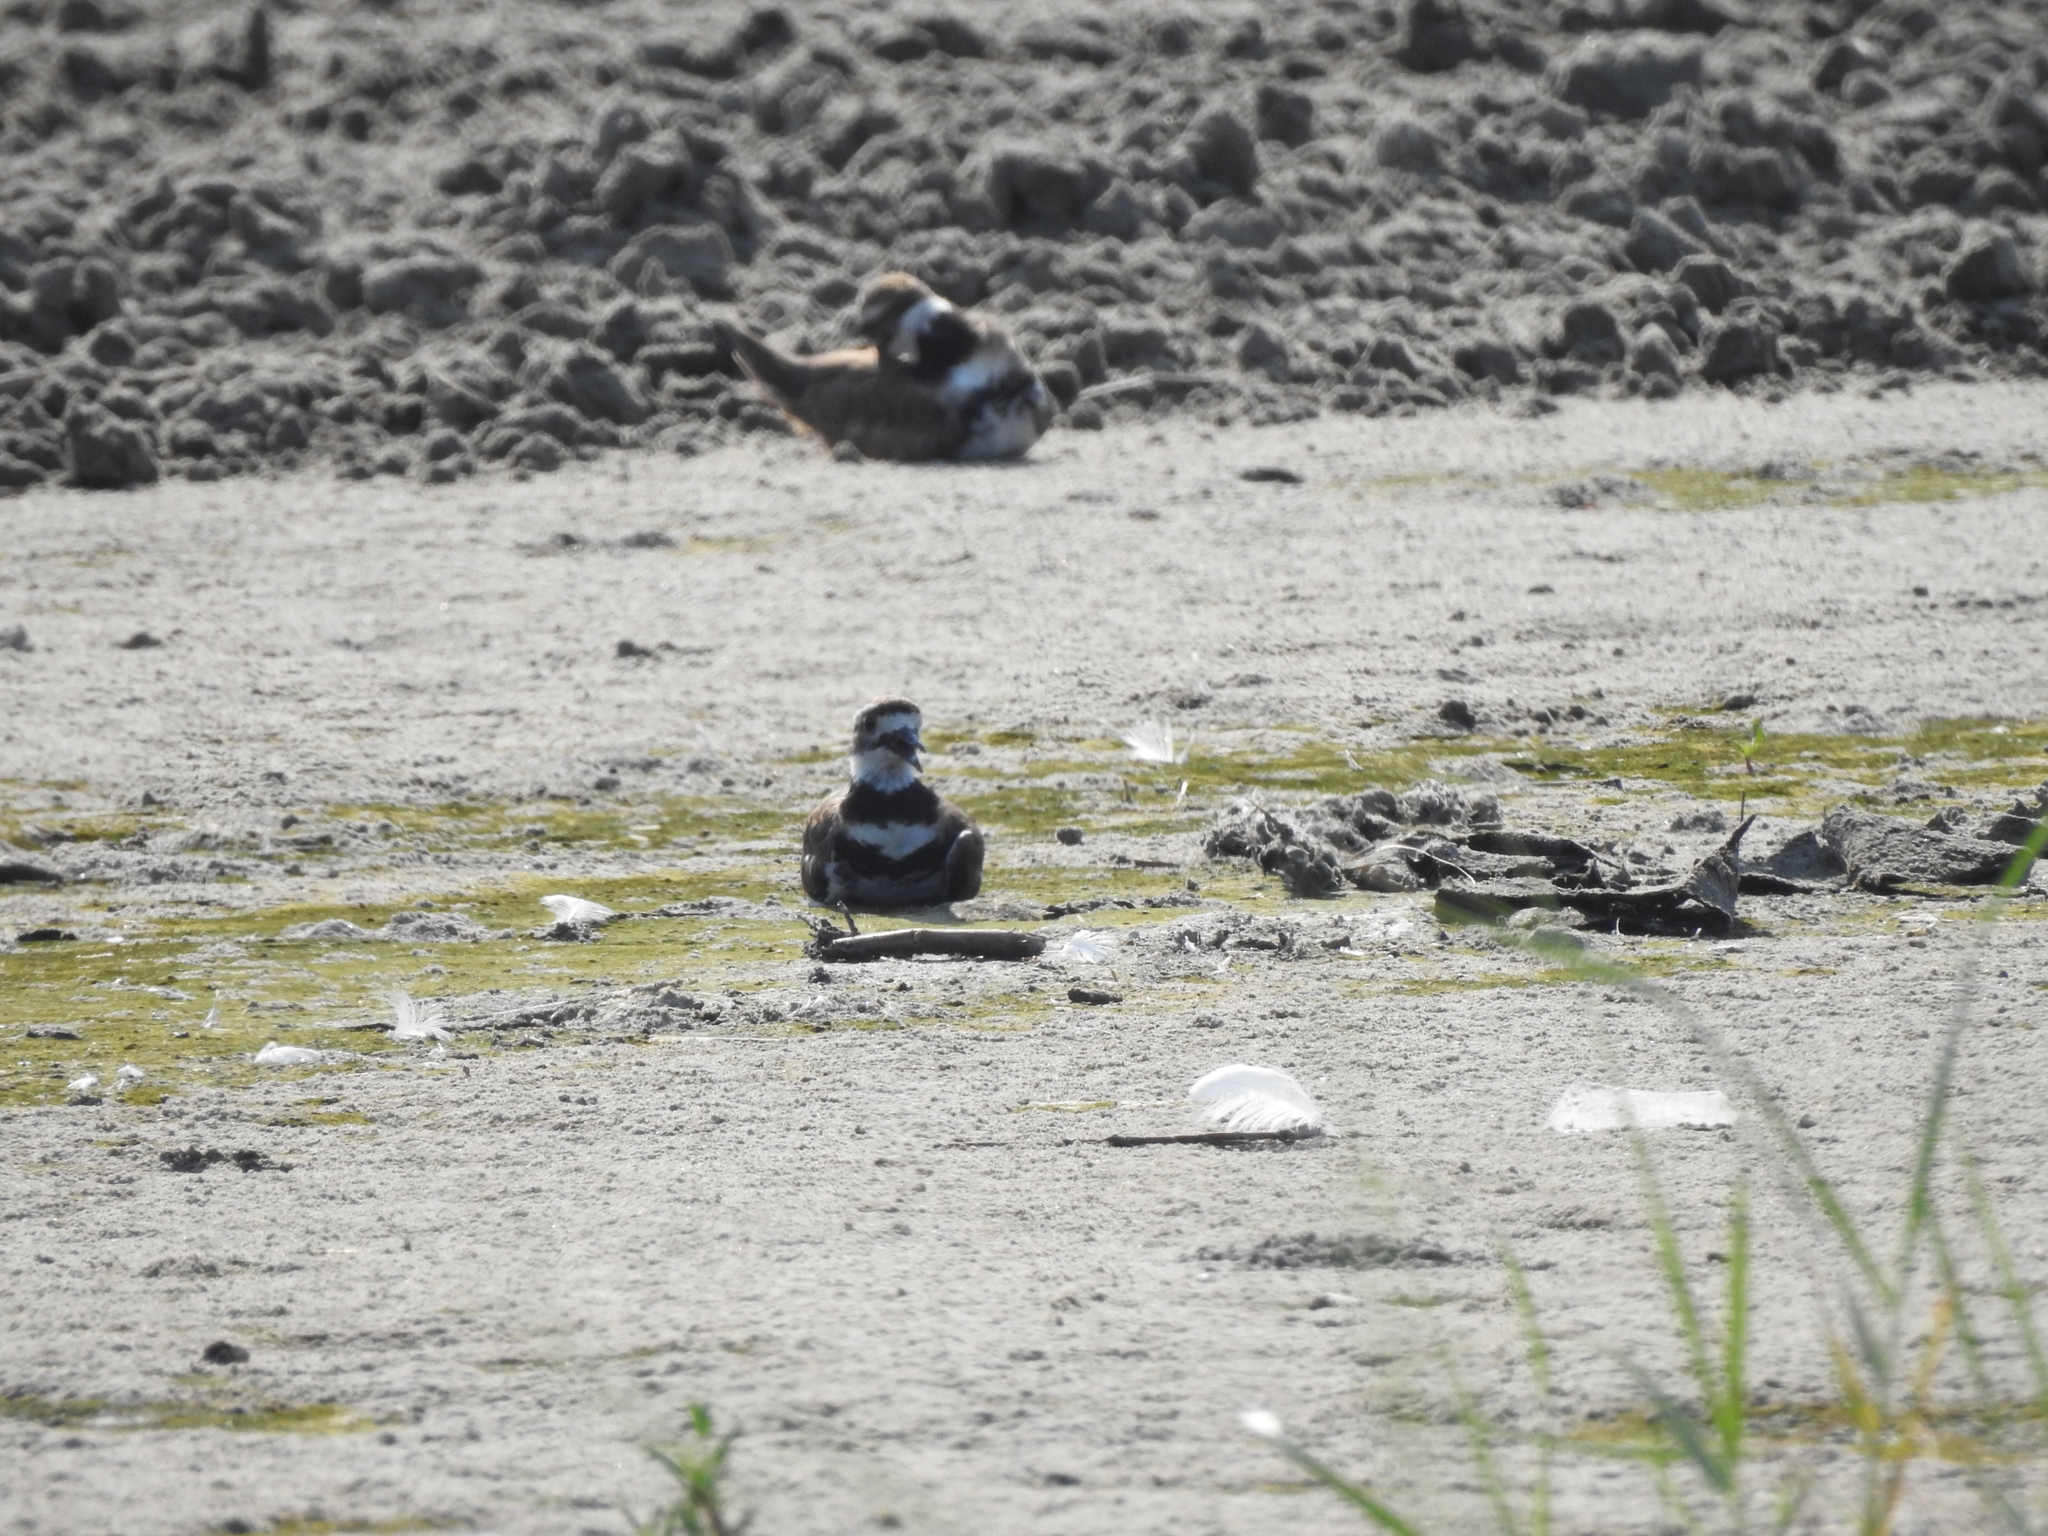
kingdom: Animalia
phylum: Chordata
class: Aves
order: Charadriiformes
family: Charadriidae
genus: Charadrius
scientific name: Charadrius vociferus
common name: Killdeer
